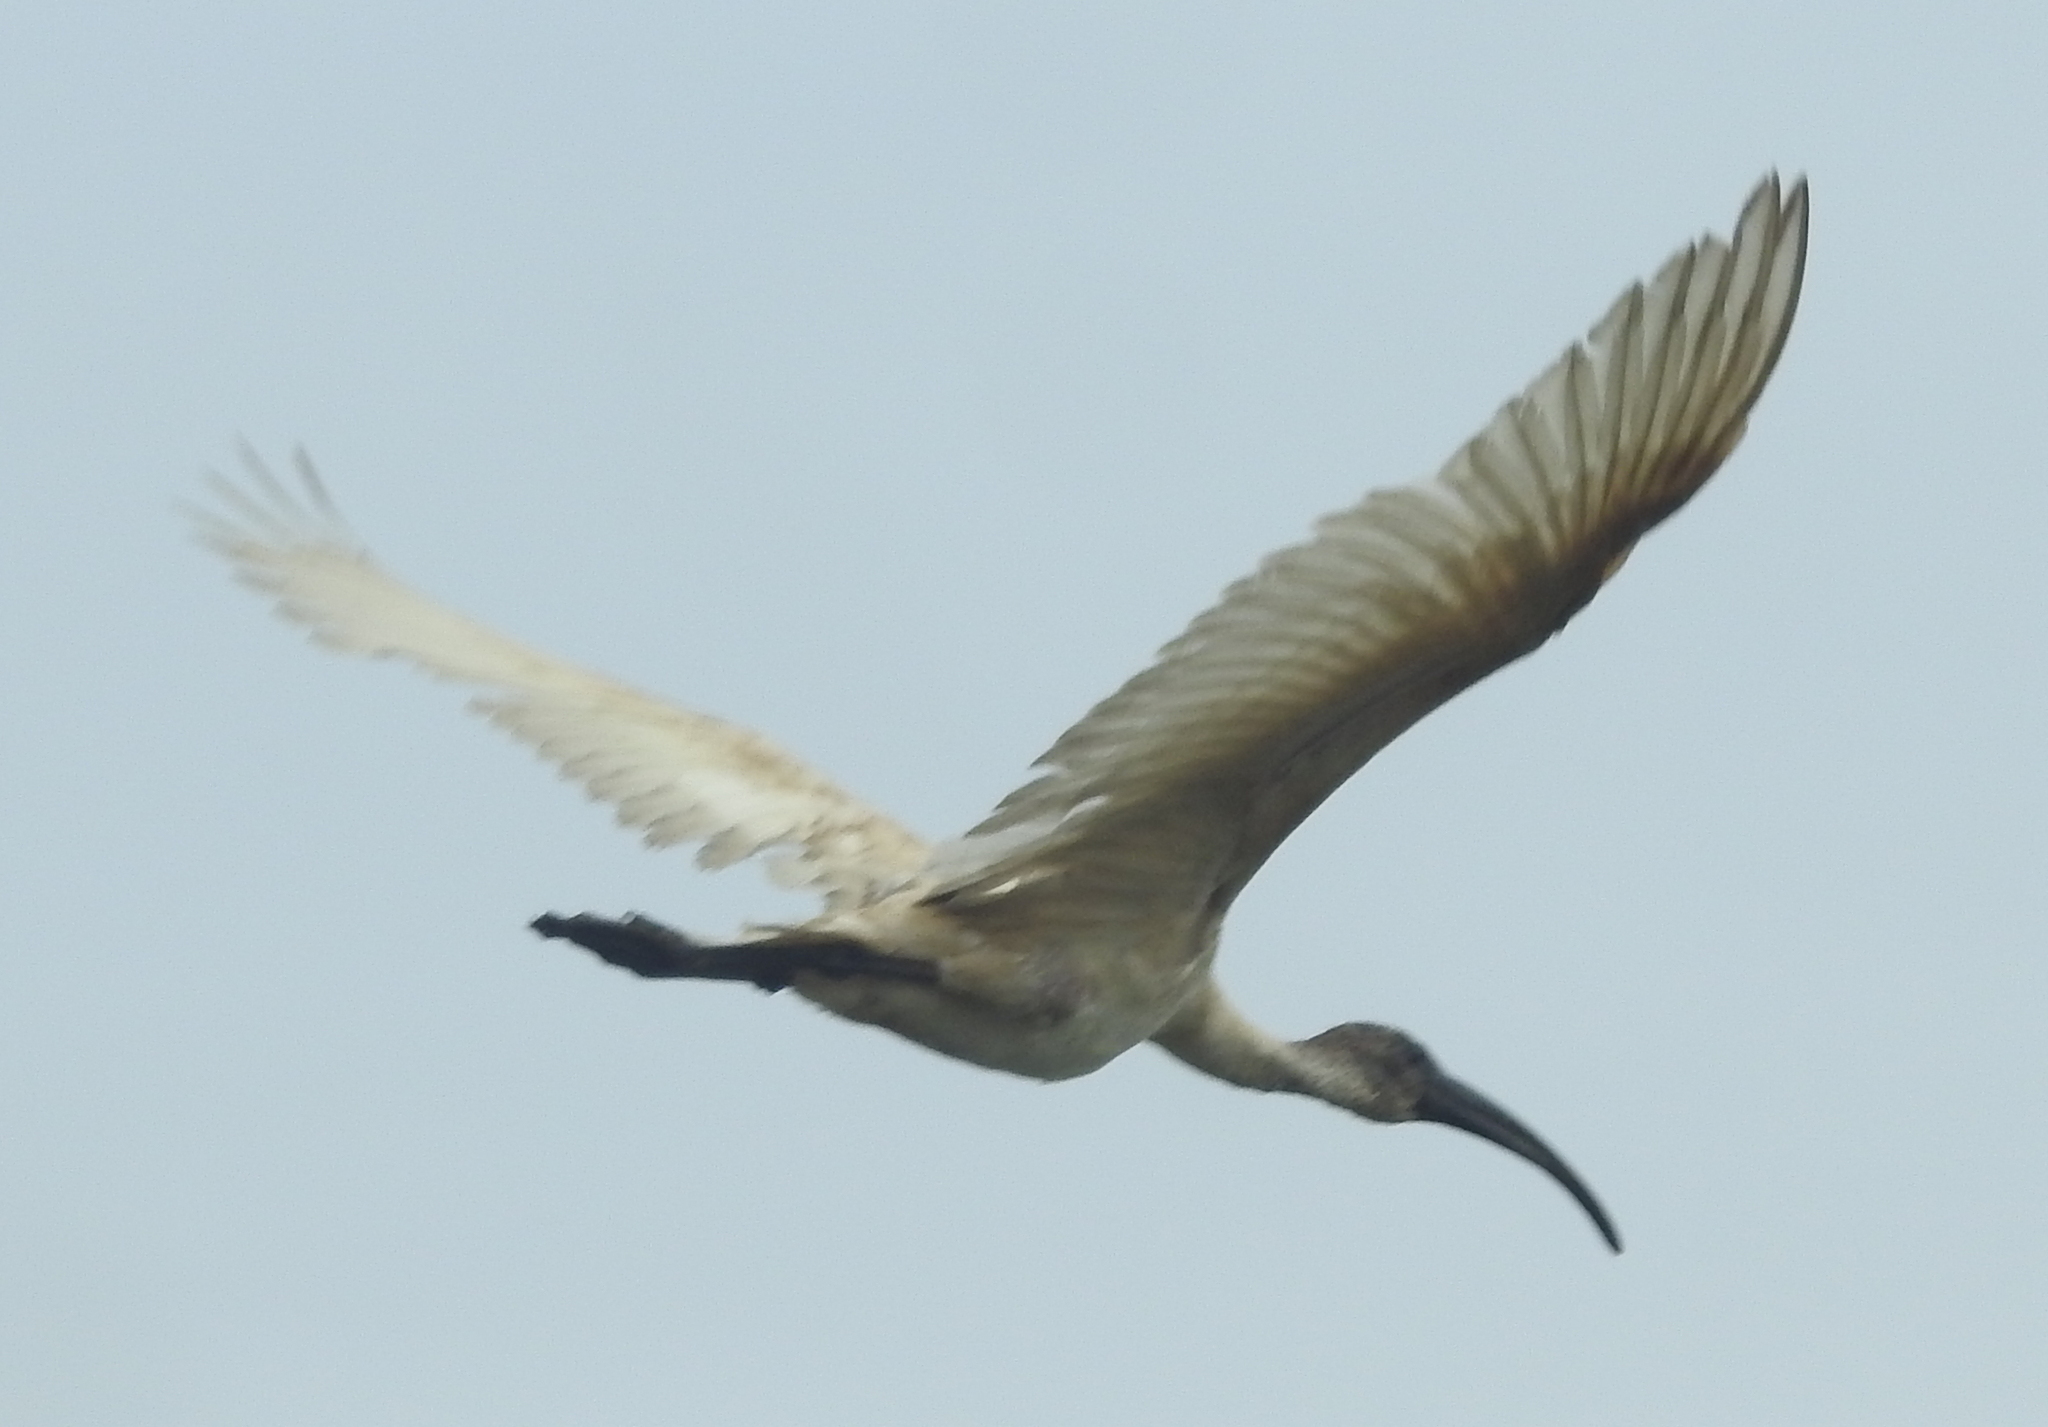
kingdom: Animalia
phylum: Chordata
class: Aves
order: Pelecaniformes
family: Threskiornithidae
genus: Threskiornis
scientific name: Threskiornis melanocephalus
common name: Black-headed ibis
